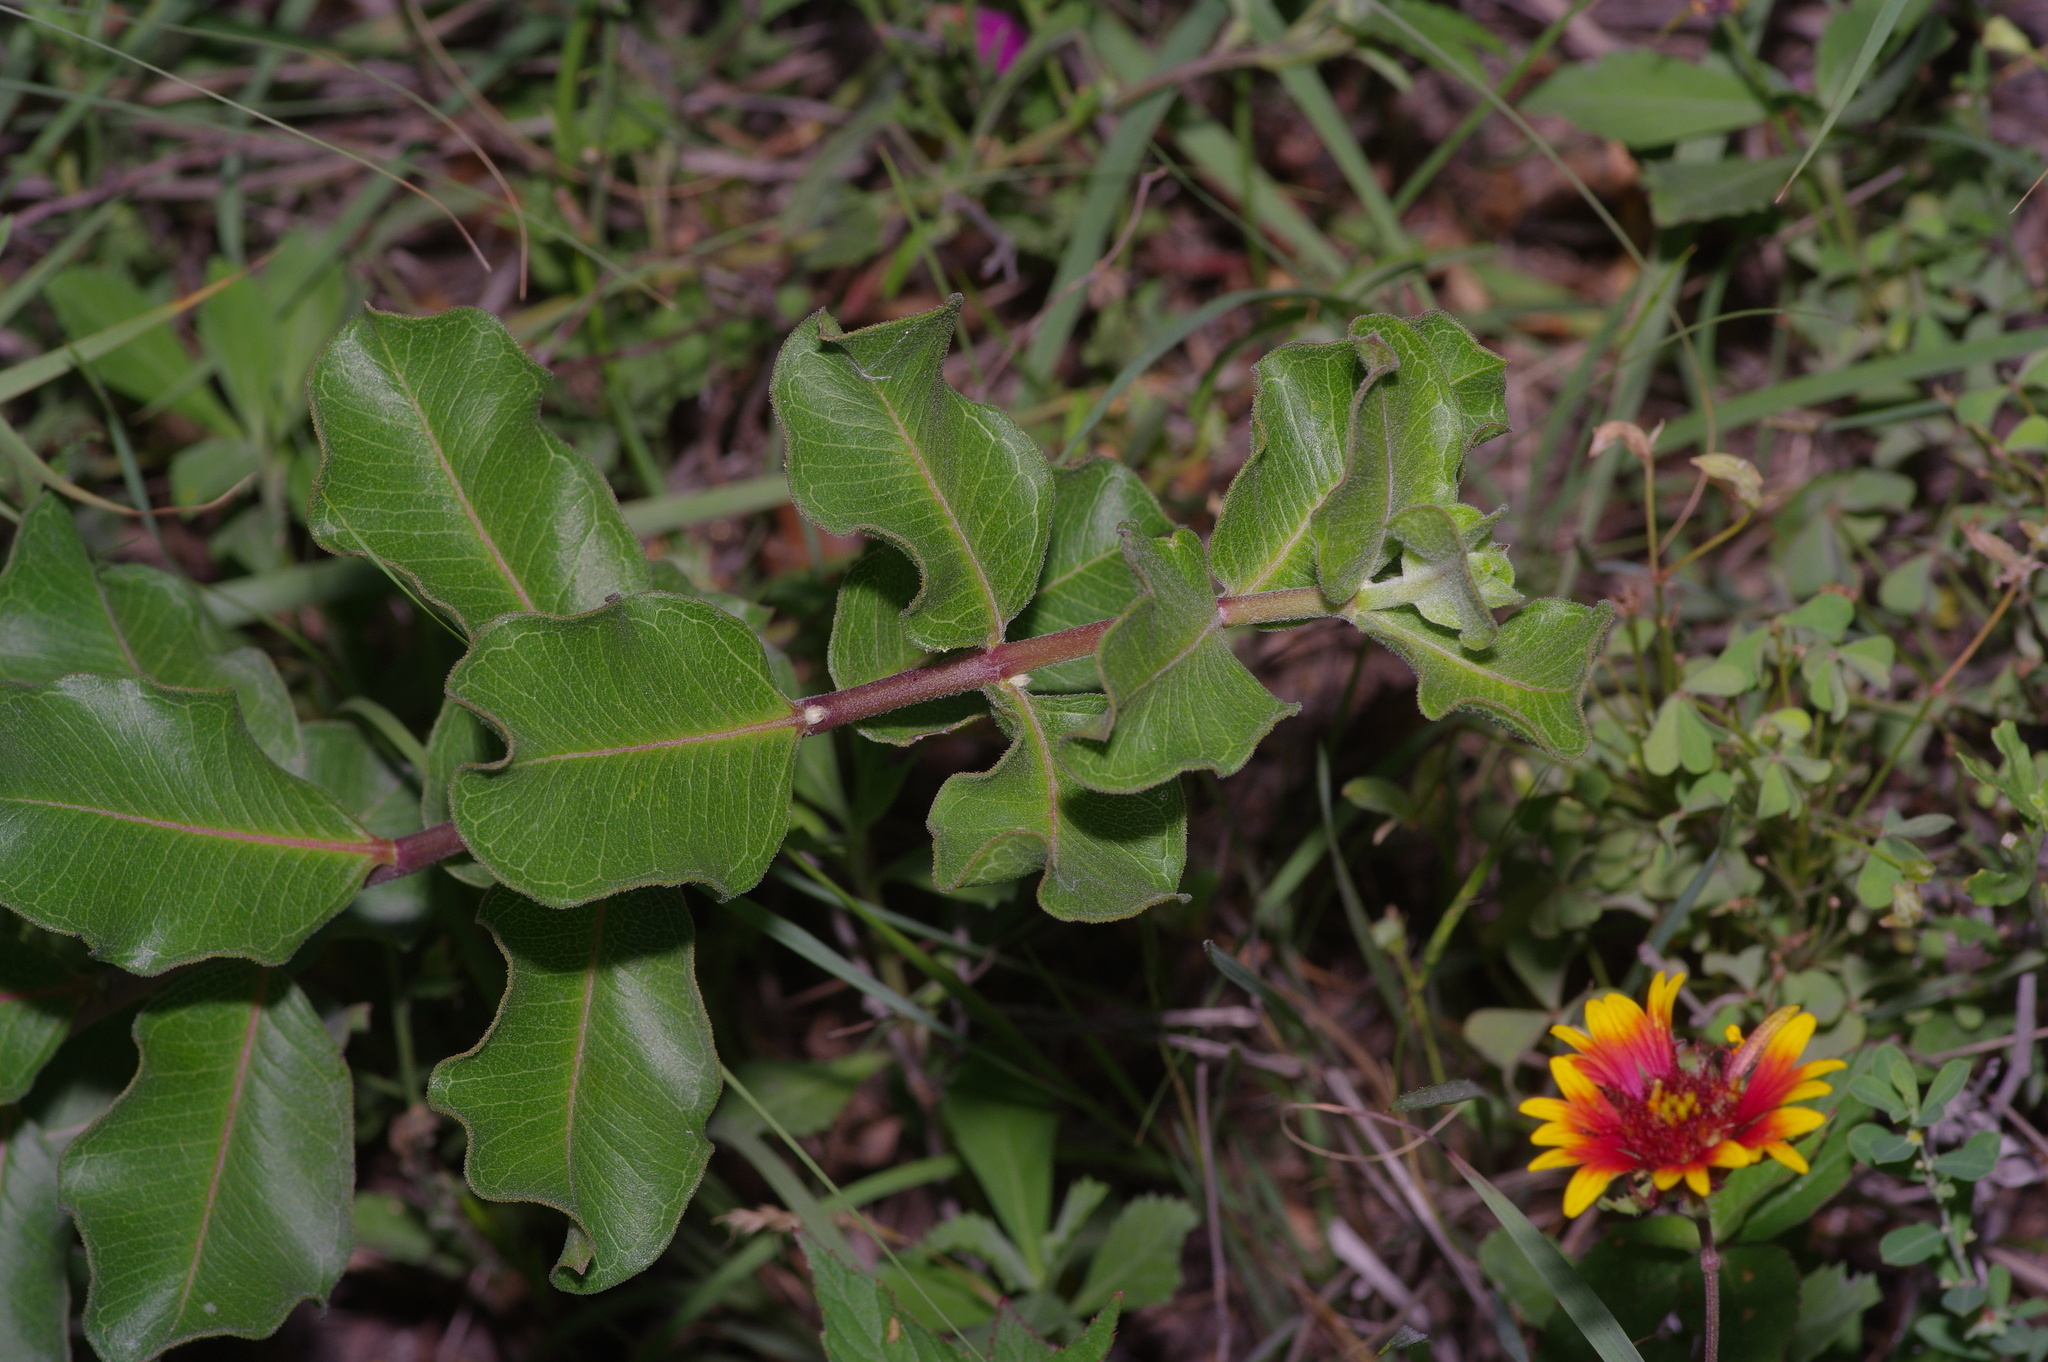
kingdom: Plantae
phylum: Tracheophyta
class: Magnoliopsida
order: Gentianales
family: Apocynaceae
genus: Asclepias
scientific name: Asclepias viridiflora
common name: Green comet milkweed
